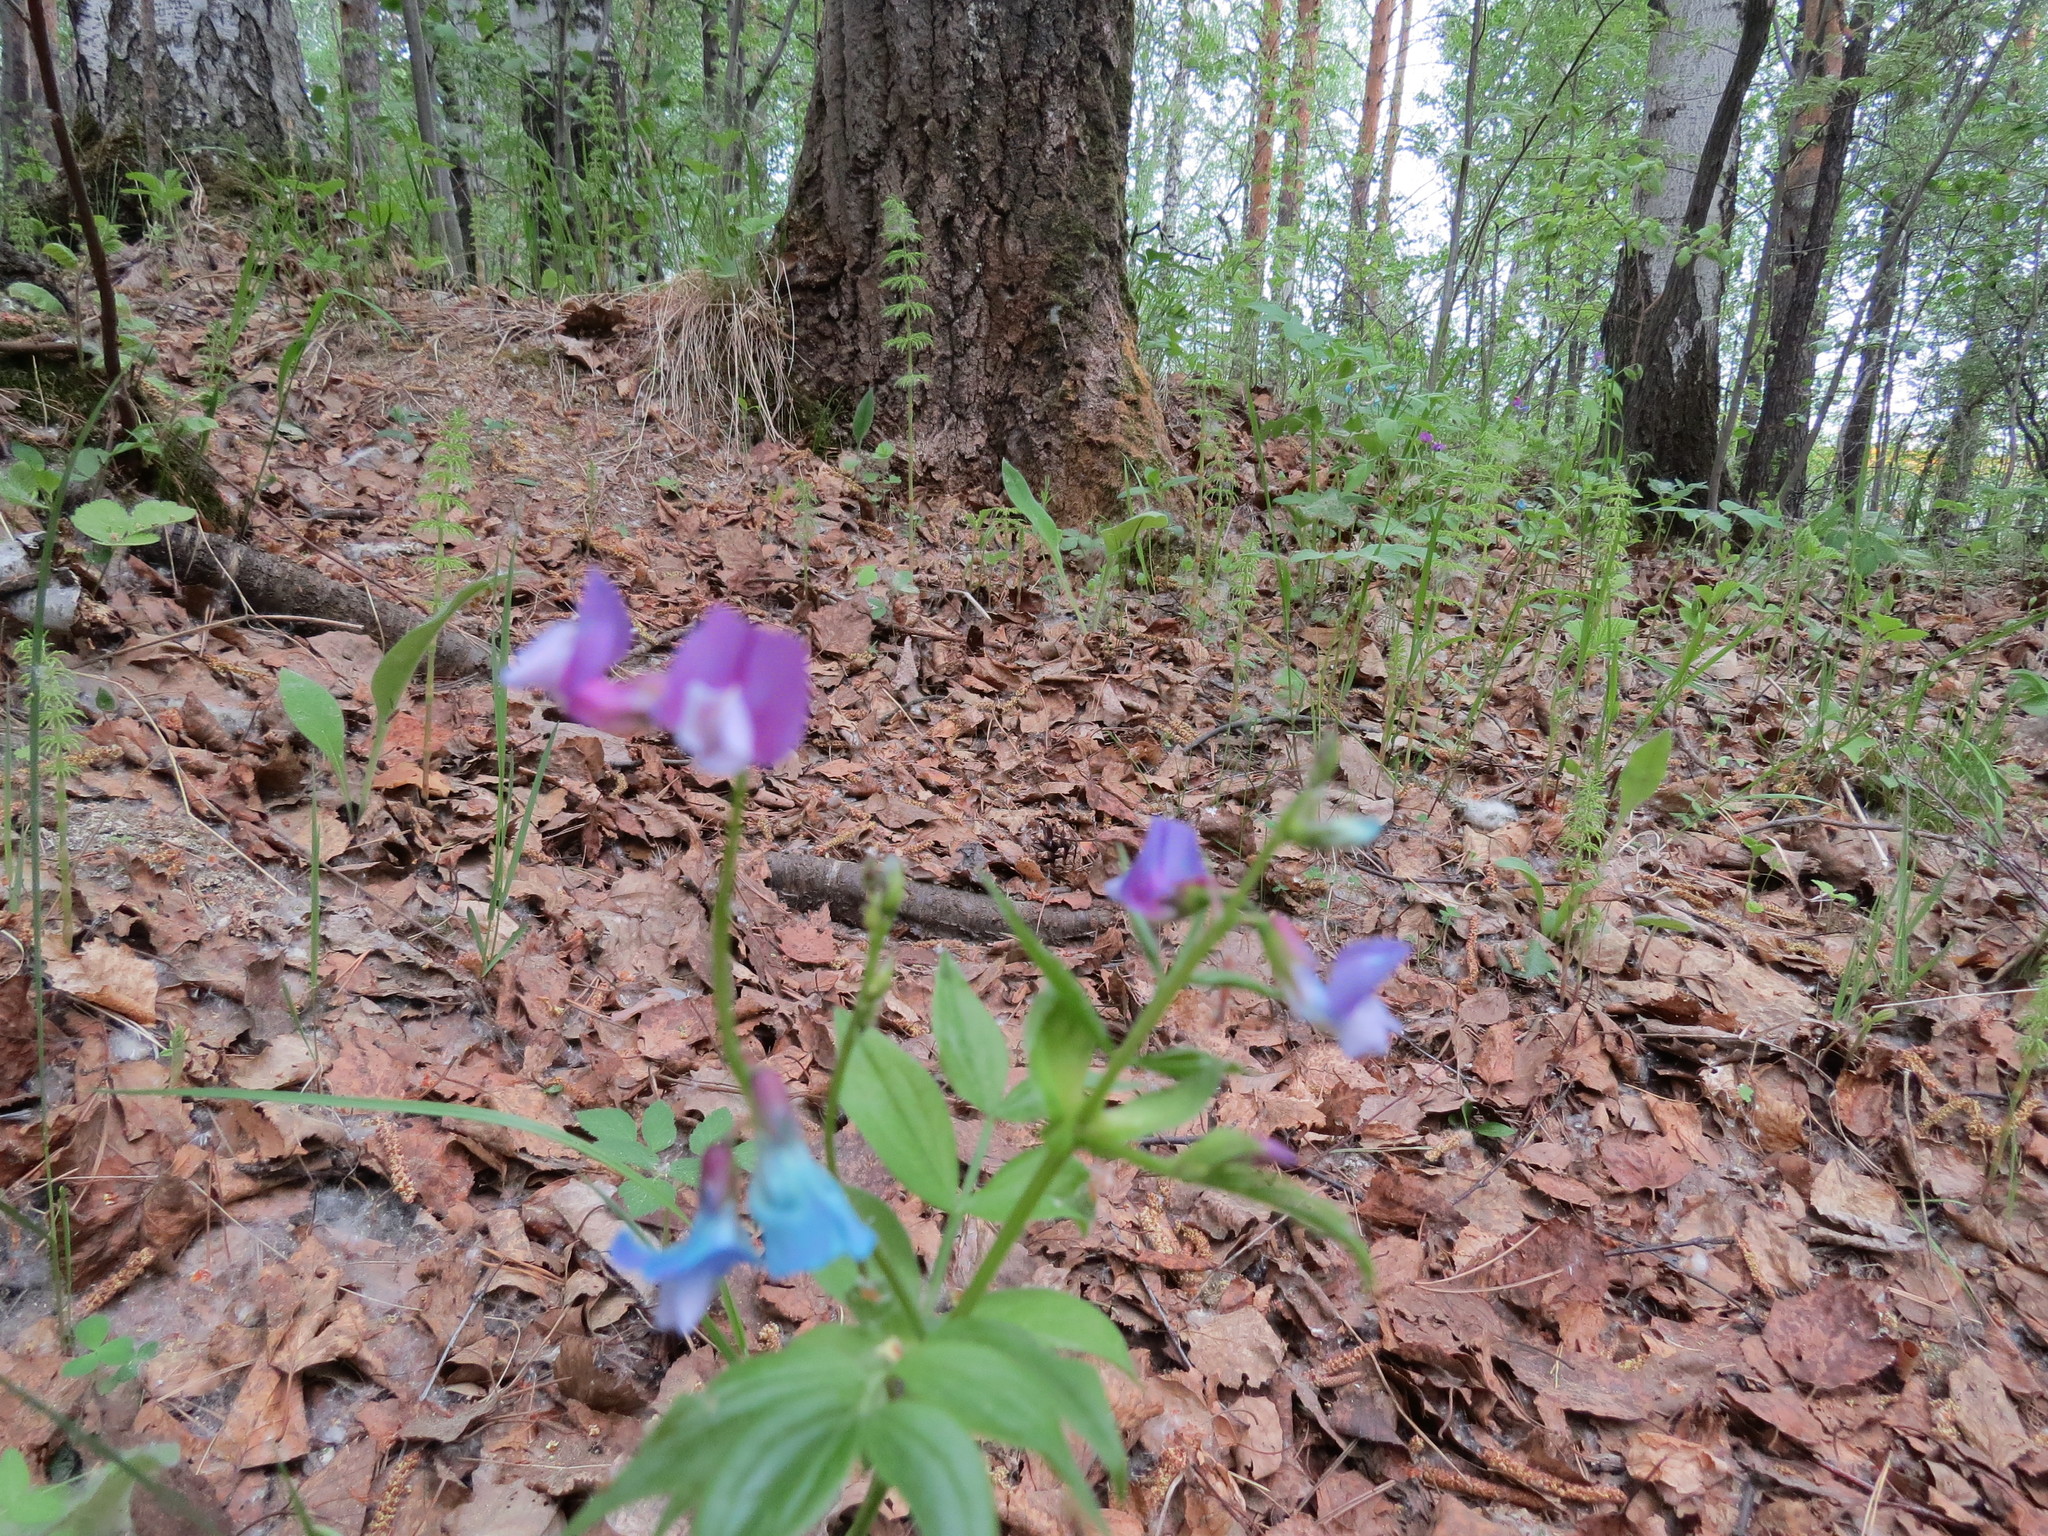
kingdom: Plantae
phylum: Tracheophyta
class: Magnoliopsida
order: Fabales
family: Fabaceae
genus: Lathyrus
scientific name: Lathyrus vernus
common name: Spring pea
